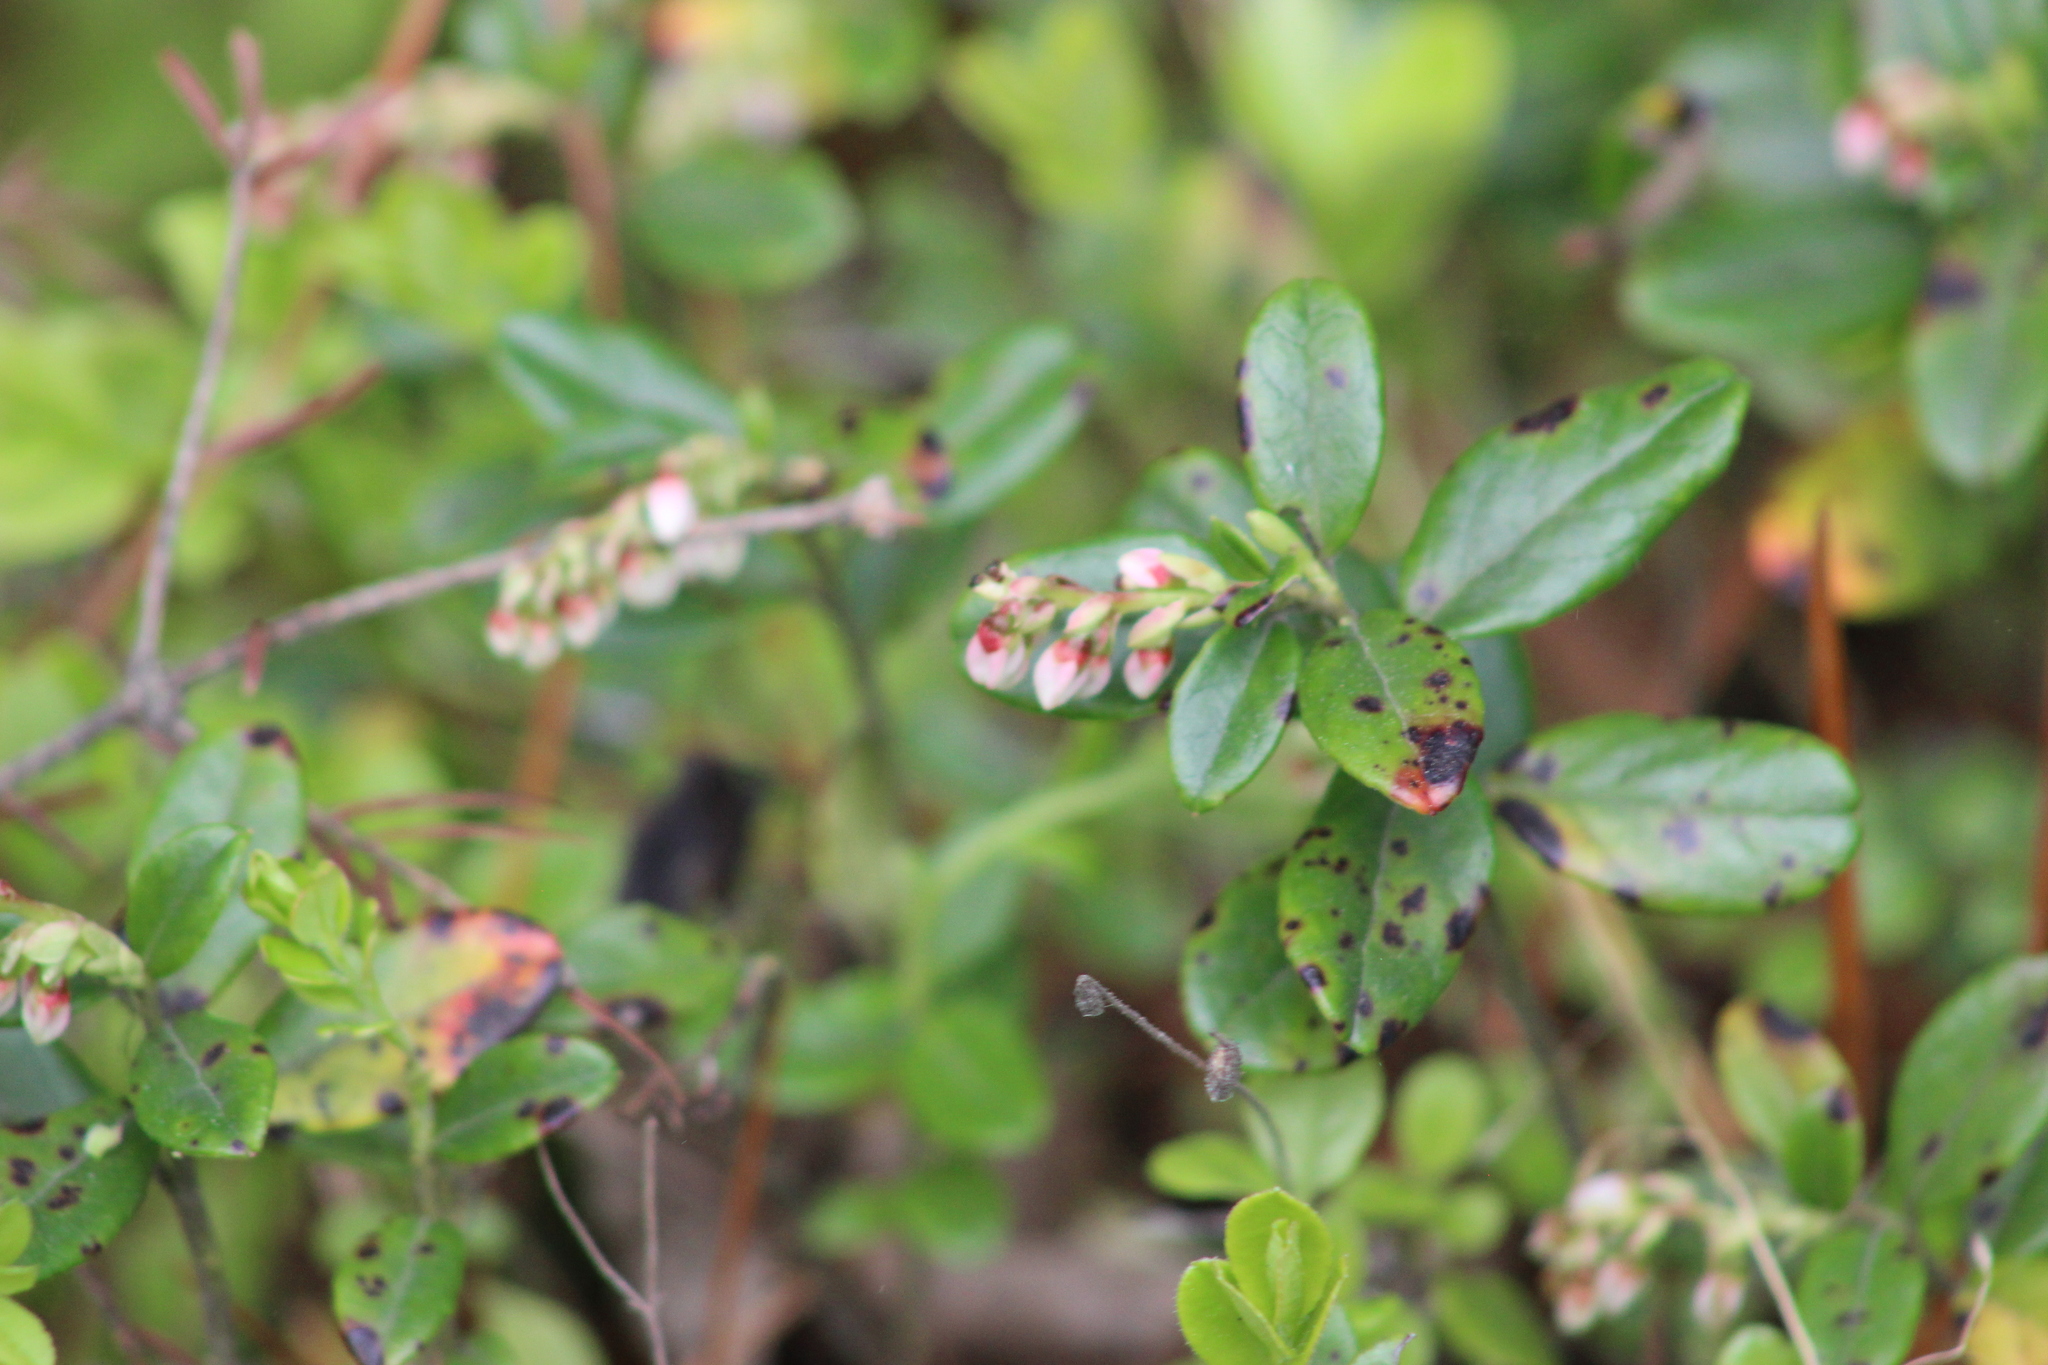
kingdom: Plantae
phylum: Tracheophyta
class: Magnoliopsida
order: Ericales
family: Ericaceae
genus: Vaccinium
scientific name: Vaccinium vitis-idaea
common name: Cowberry
